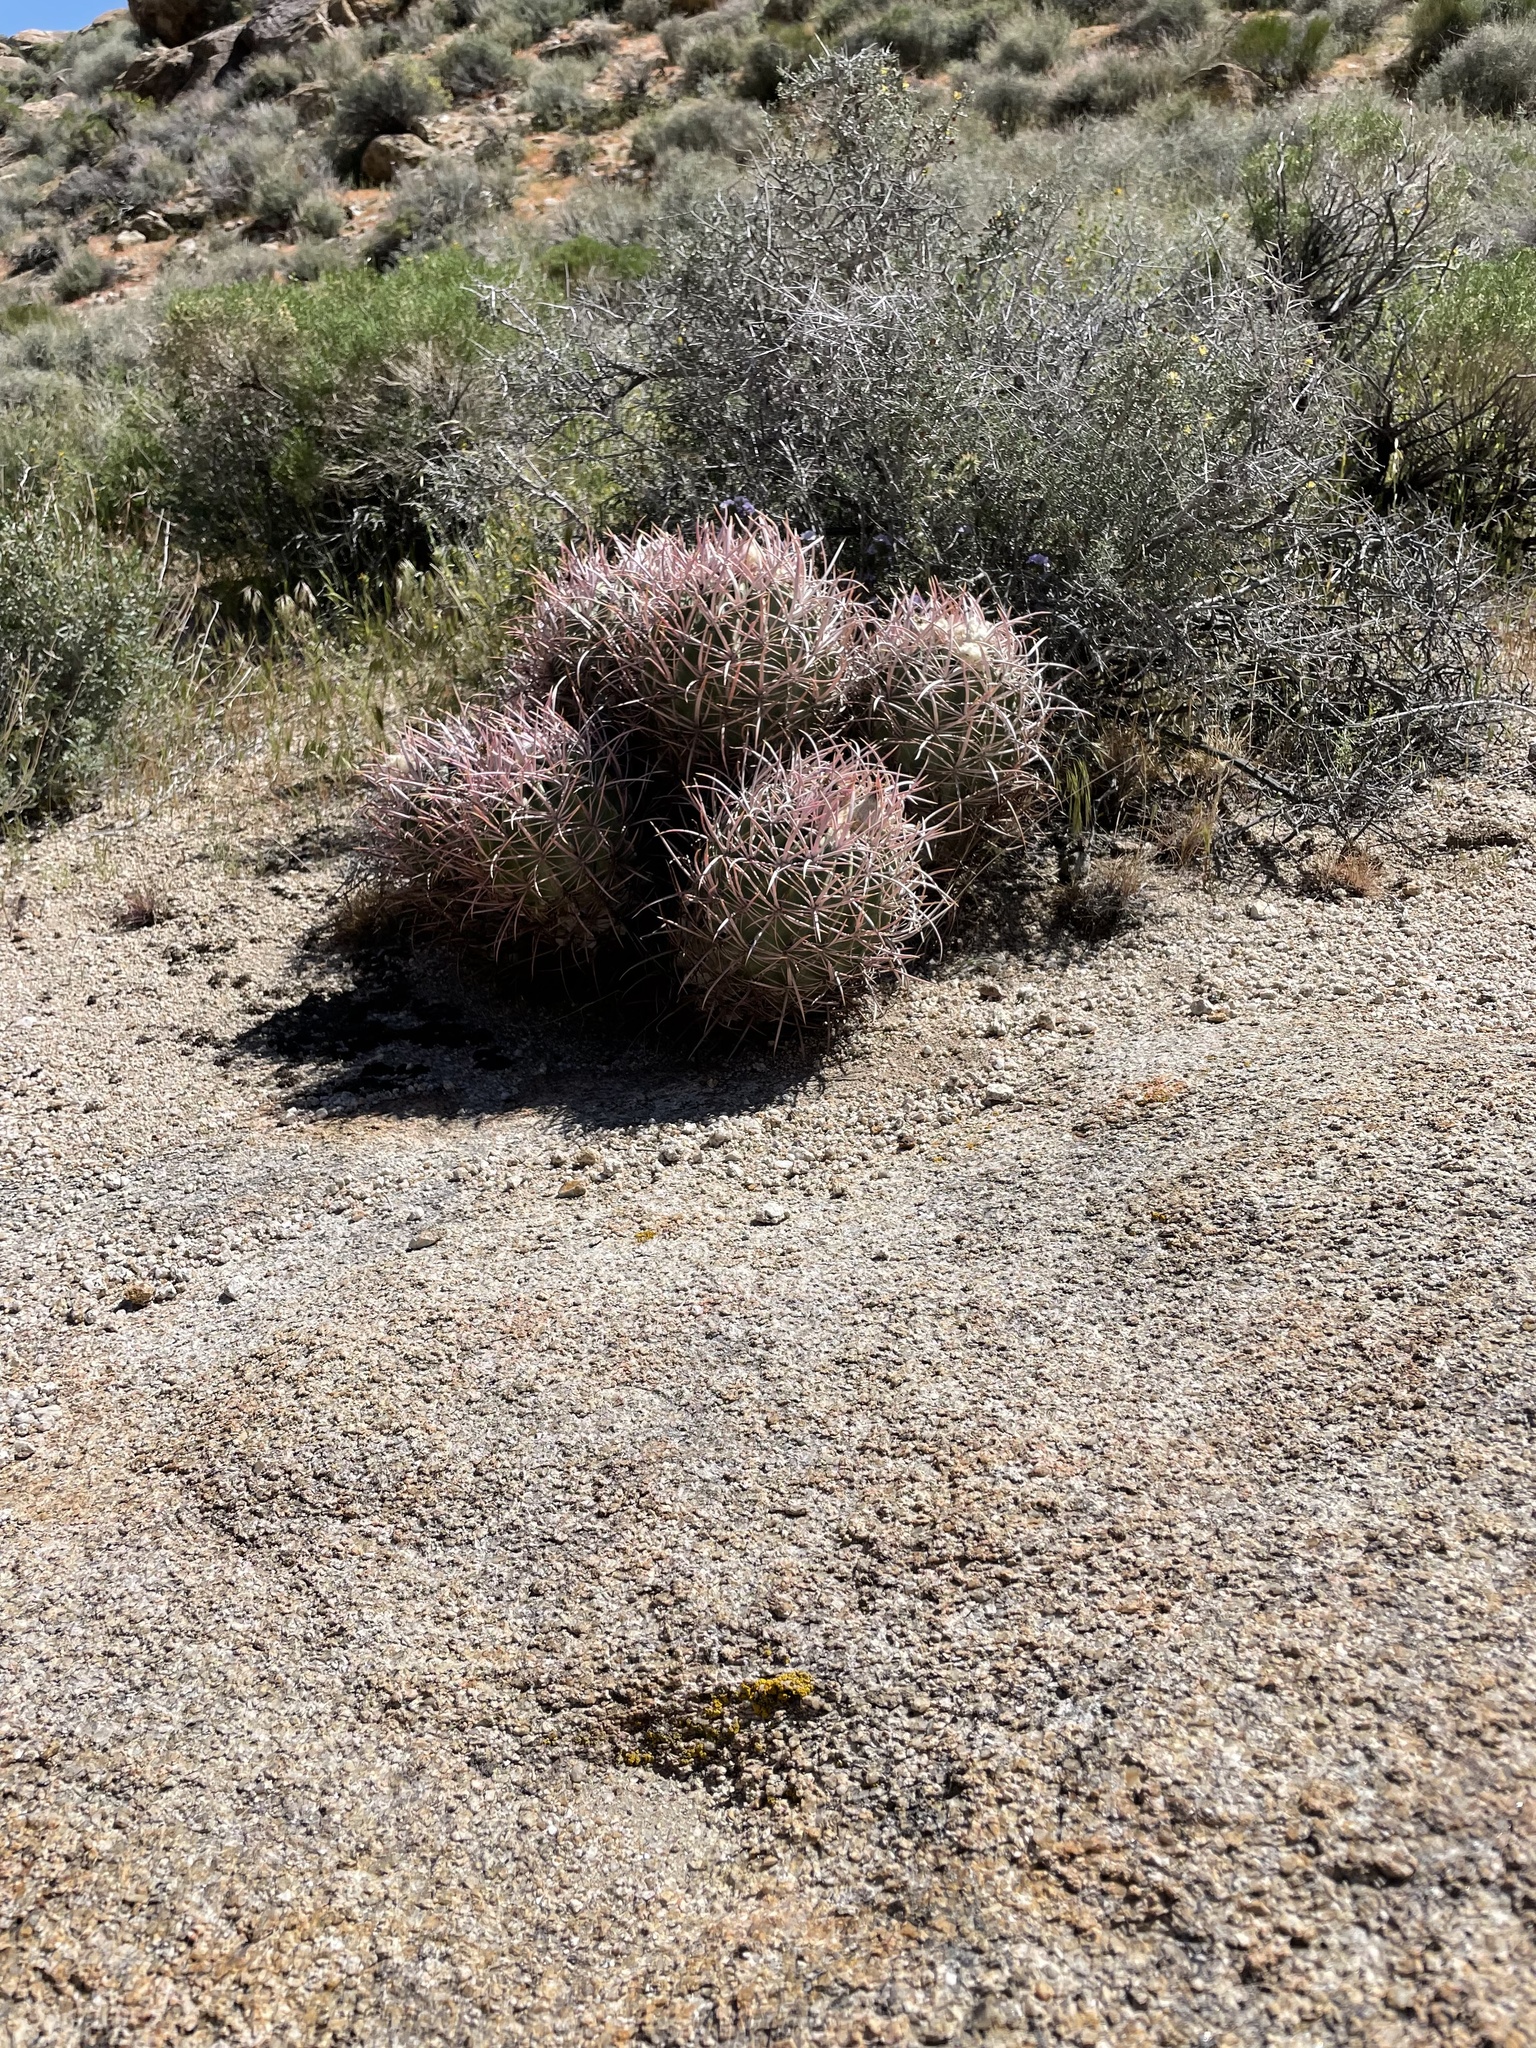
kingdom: Plantae
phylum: Tracheophyta
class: Magnoliopsida
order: Caryophyllales
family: Cactaceae
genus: Echinocactus
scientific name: Echinocactus polycephalus
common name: Cottontop cactus
